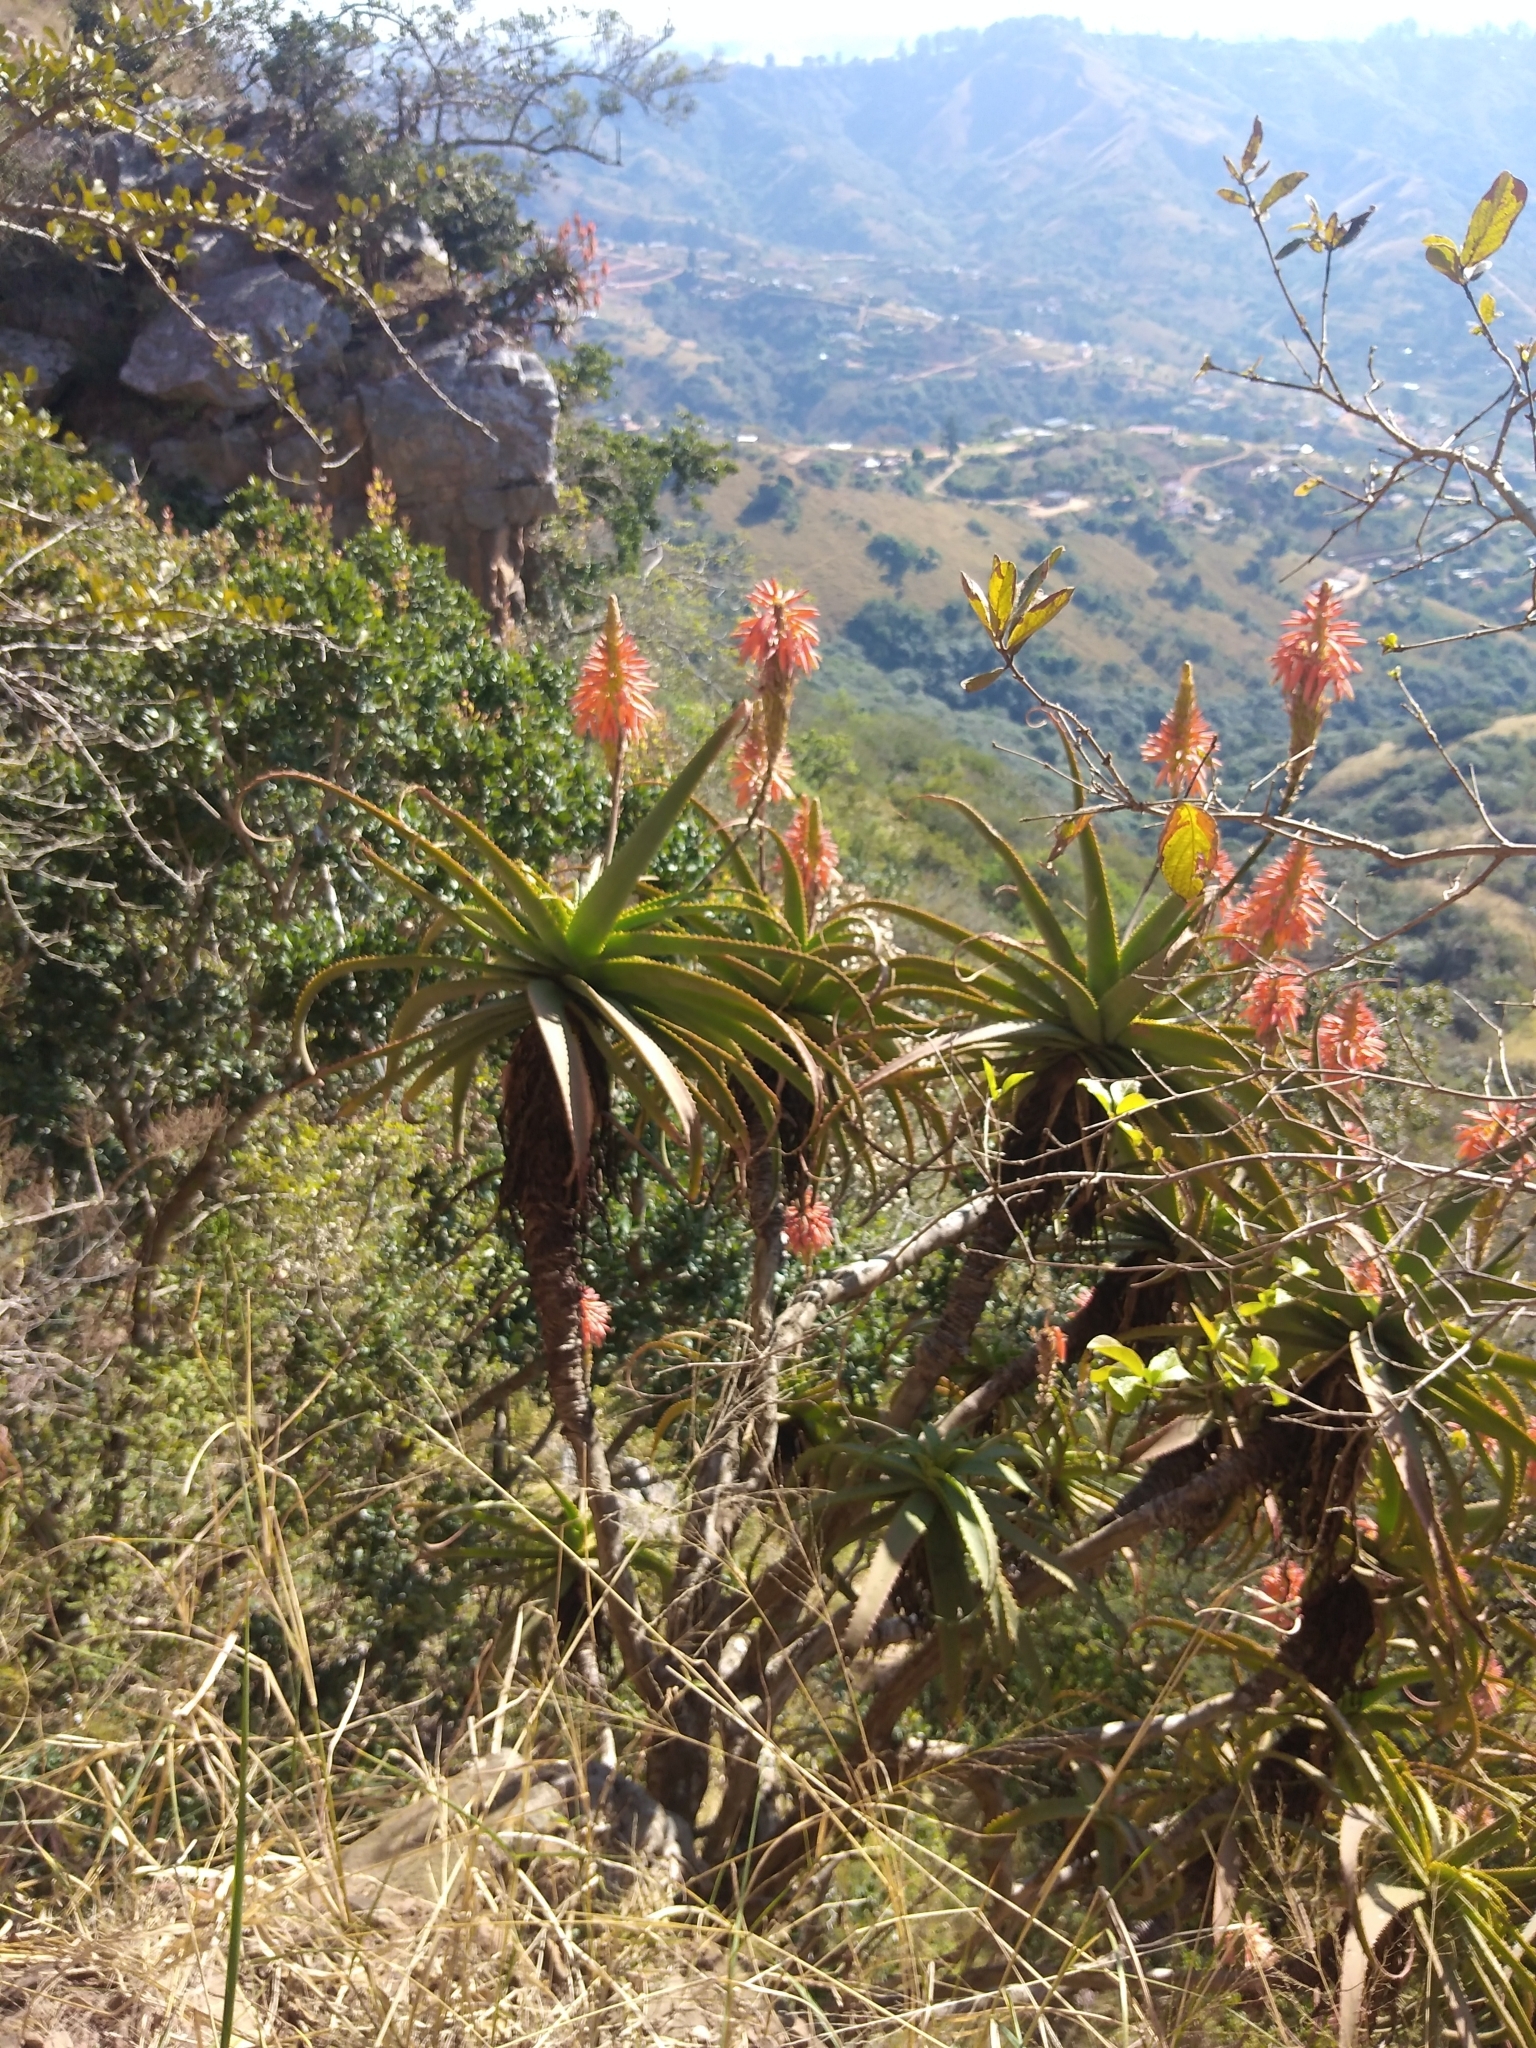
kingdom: Plantae
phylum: Tracheophyta
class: Liliopsida
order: Asparagales
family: Asphodelaceae
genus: Aloe
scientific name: Aloe arborescens
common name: Candelabra aloe
